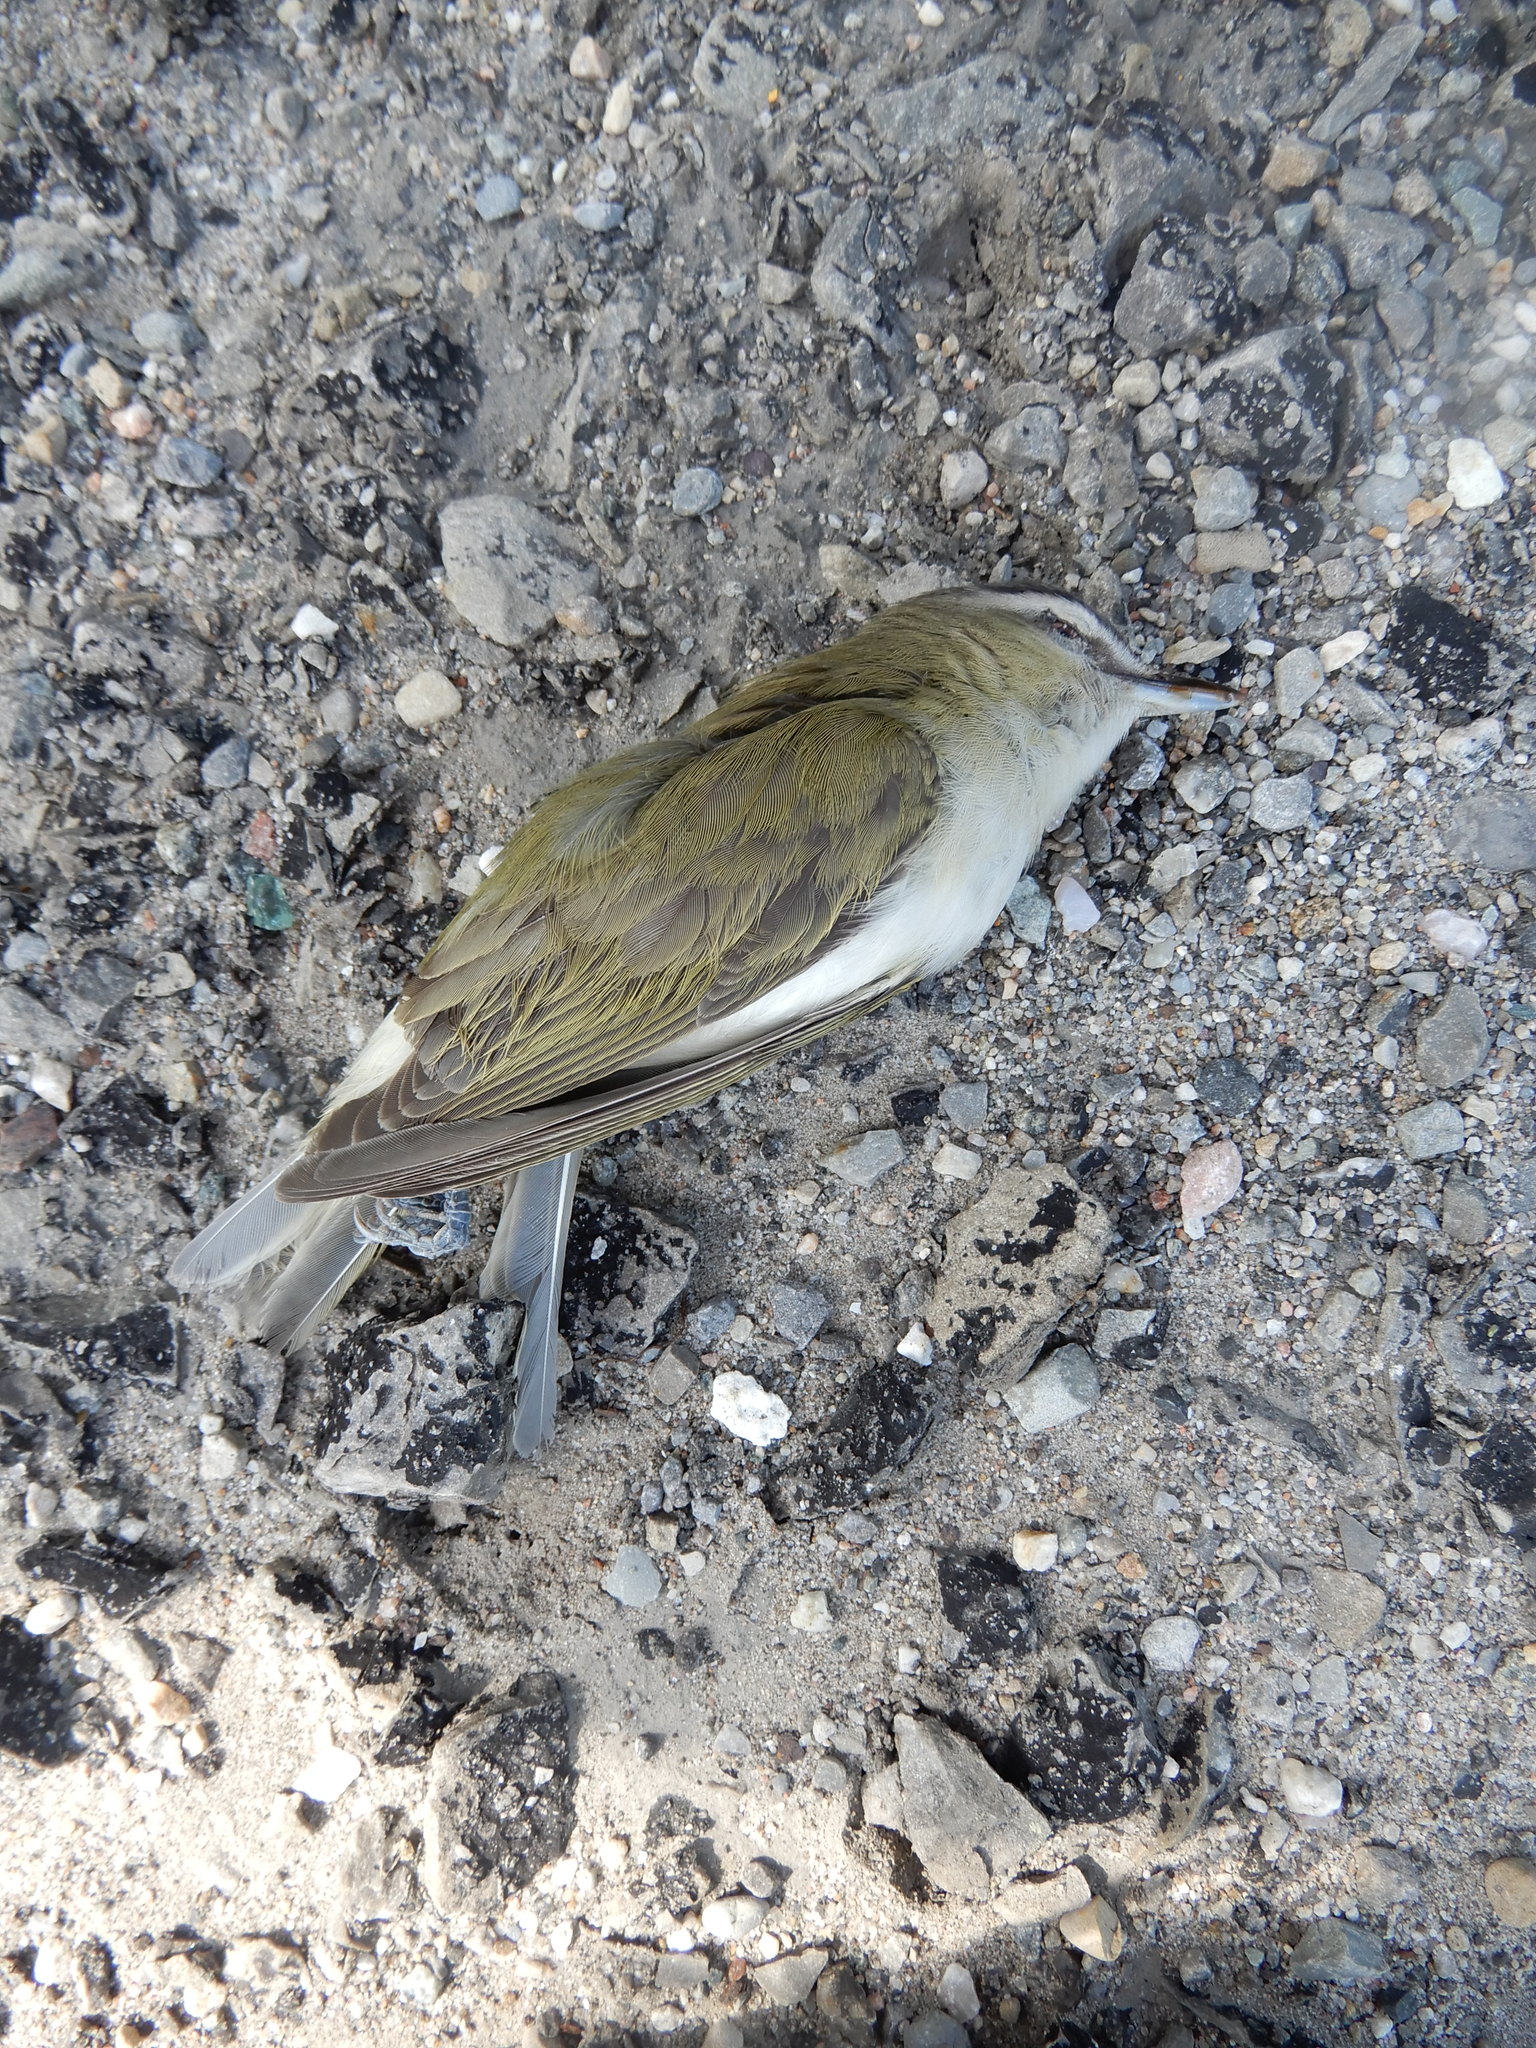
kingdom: Animalia
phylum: Chordata
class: Aves
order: Passeriformes
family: Vireonidae
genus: Vireo
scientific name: Vireo olivaceus
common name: Red-eyed vireo
